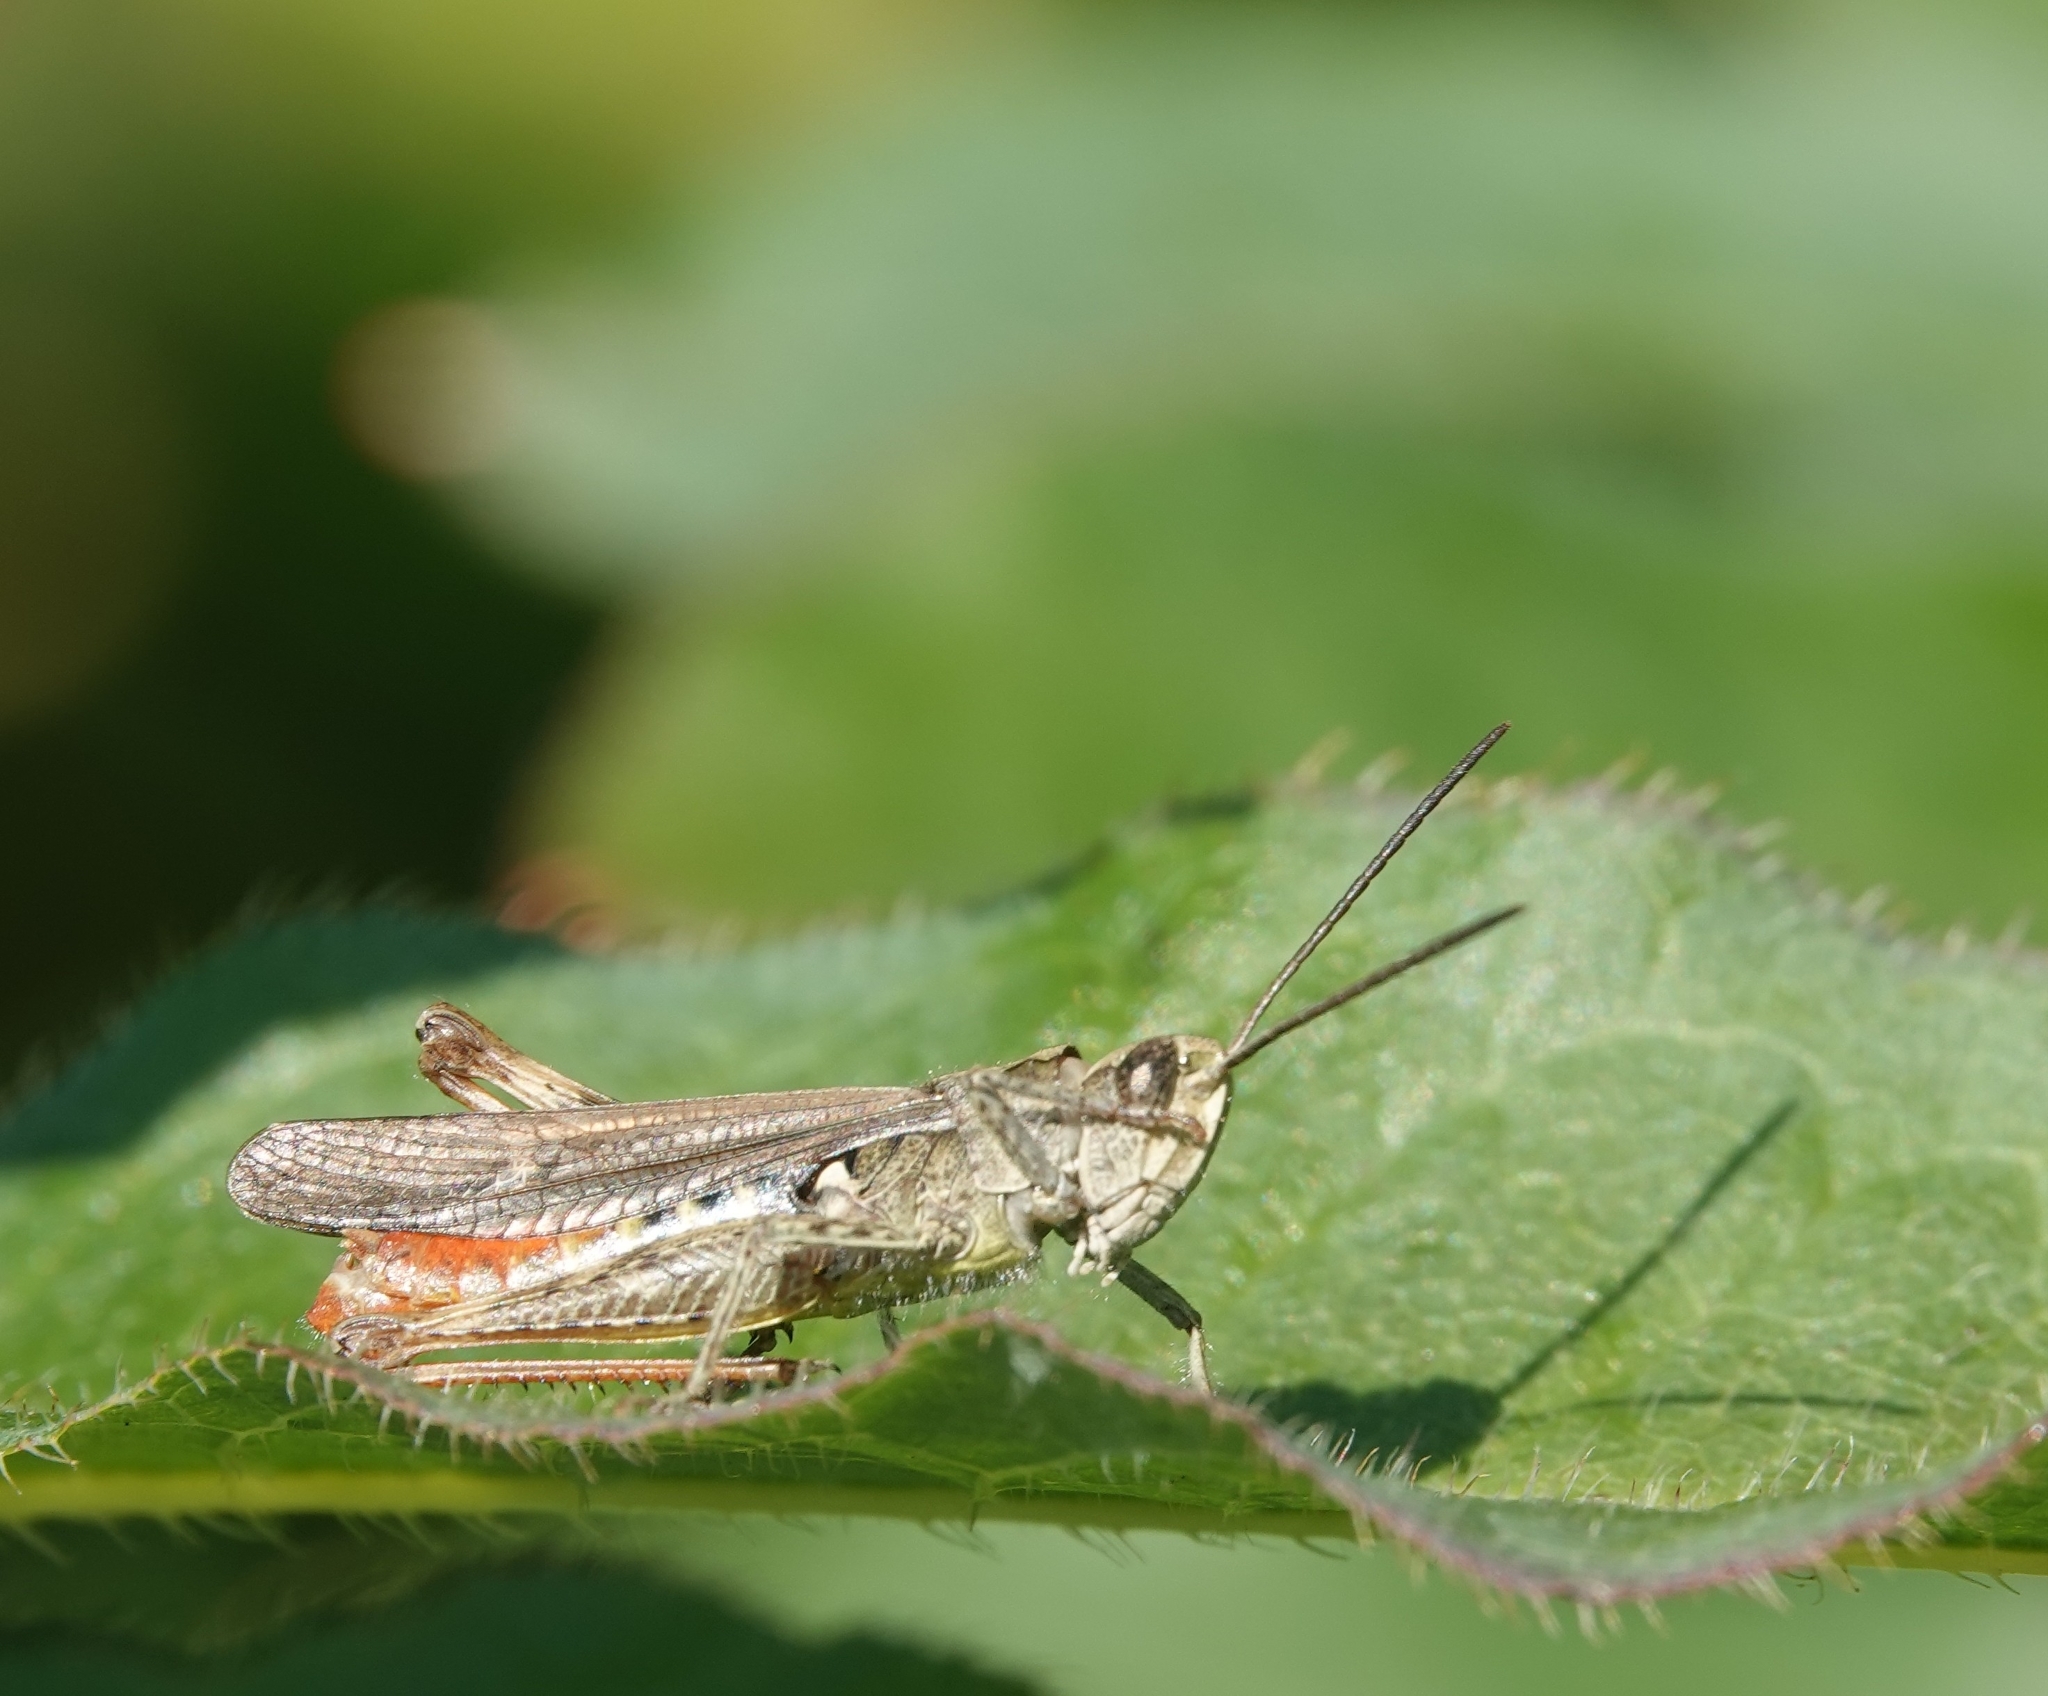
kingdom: Animalia
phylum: Arthropoda
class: Insecta
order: Orthoptera
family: Acrididae
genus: Chorthippus
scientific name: Chorthippus brunneus
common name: Field grasshopper
